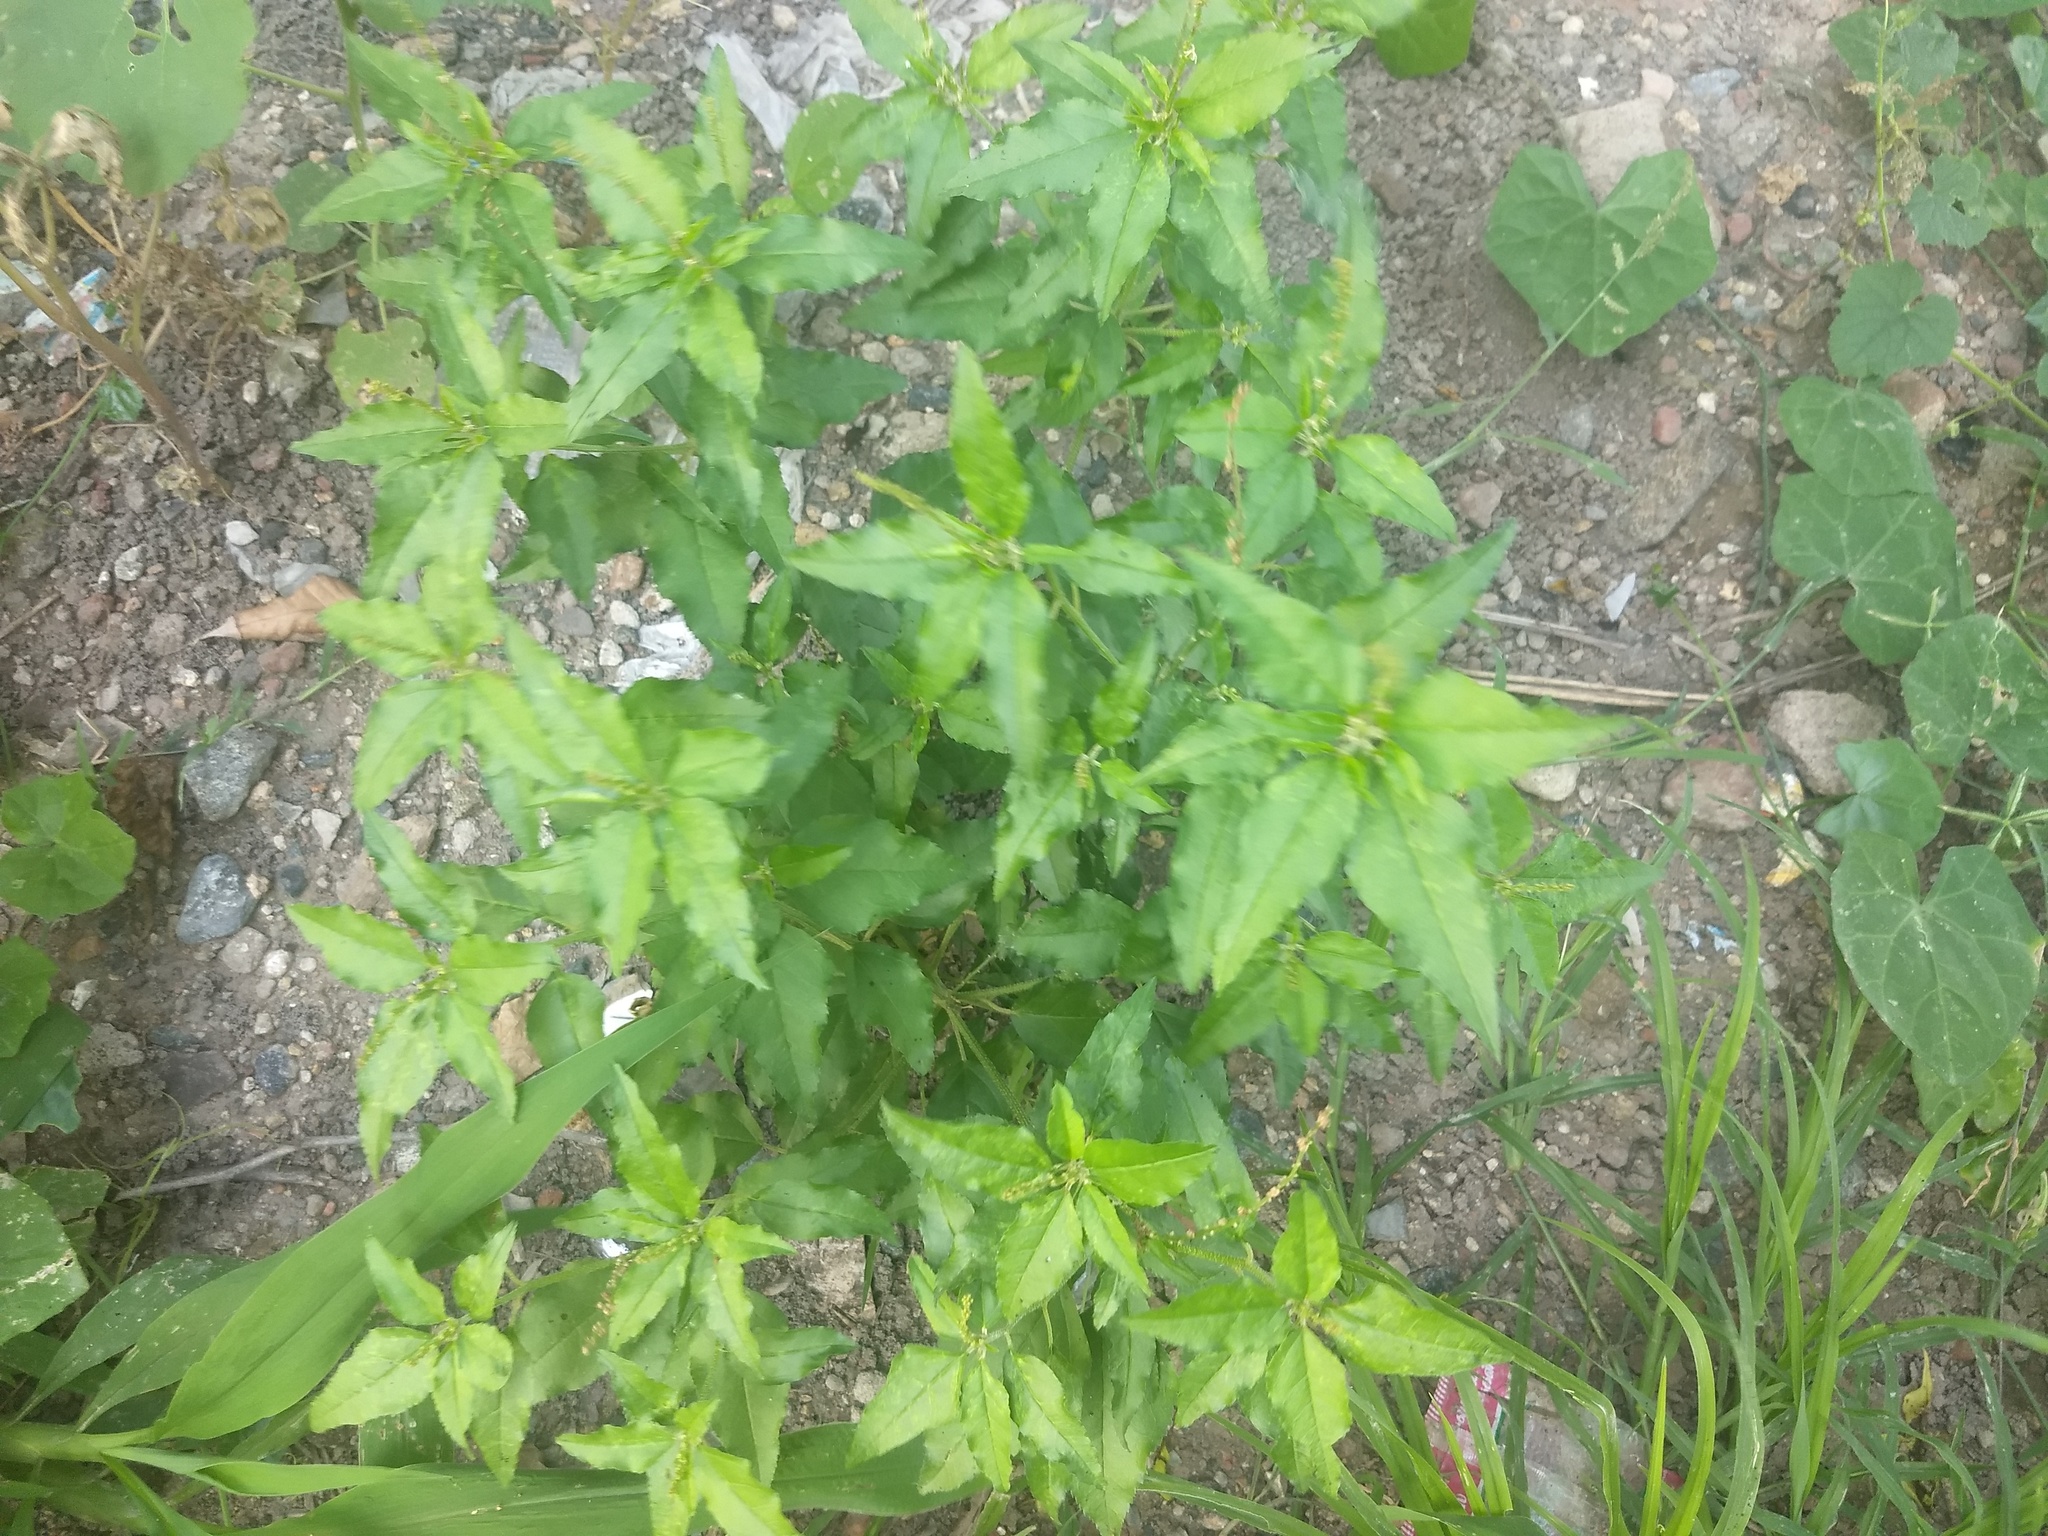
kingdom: Plantae
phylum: Tracheophyta
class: Magnoliopsida
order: Malpighiales
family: Euphorbiaceae
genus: Croton
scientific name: Croton bonplandianus
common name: Bonpland's croton
